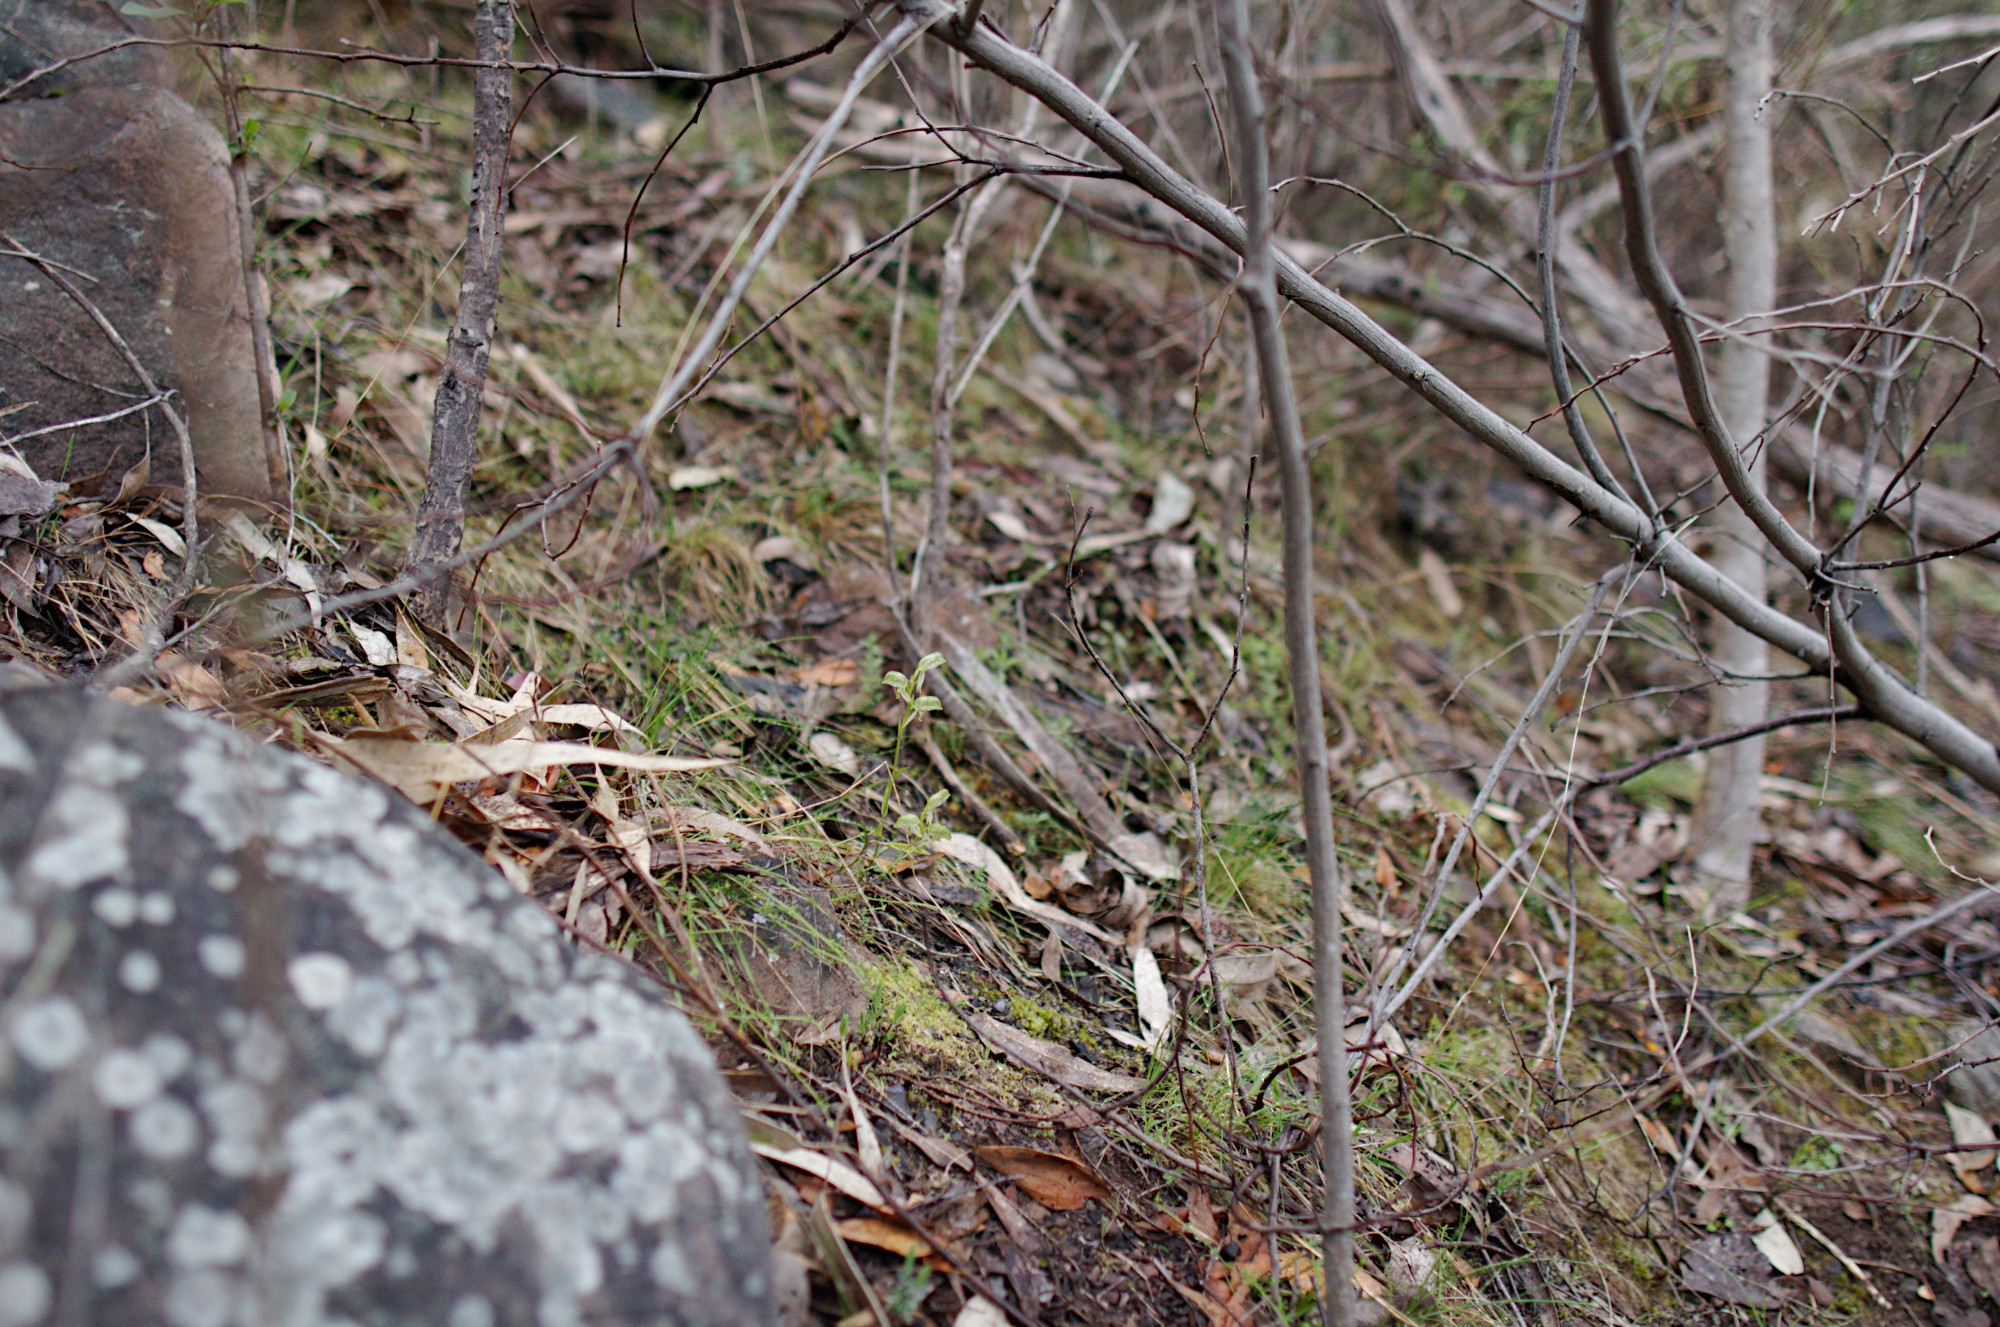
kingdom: Plantae
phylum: Tracheophyta
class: Liliopsida
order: Asparagales
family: Orchidaceae
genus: Pterostylis
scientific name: Pterostylis melagramma
